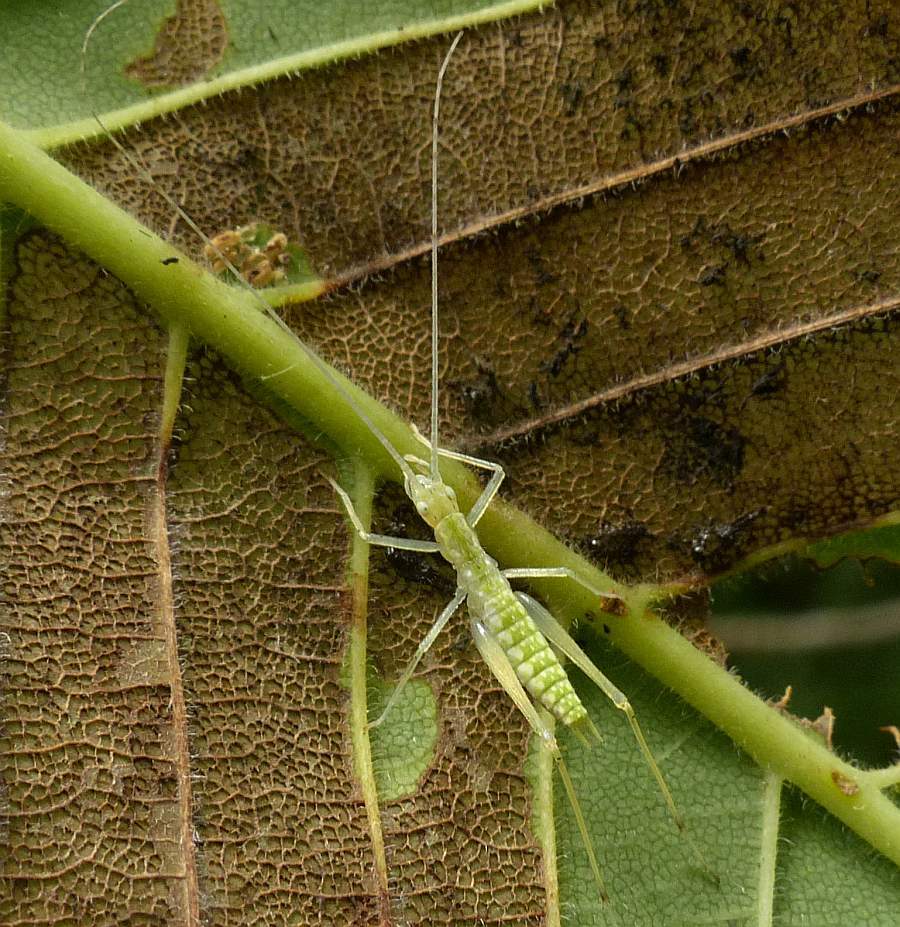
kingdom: Animalia
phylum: Arthropoda
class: Insecta
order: Orthoptera
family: Gryllidae
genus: Oecanthus
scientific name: Oecanthus niveus
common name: Narrow-winged tree cricket
